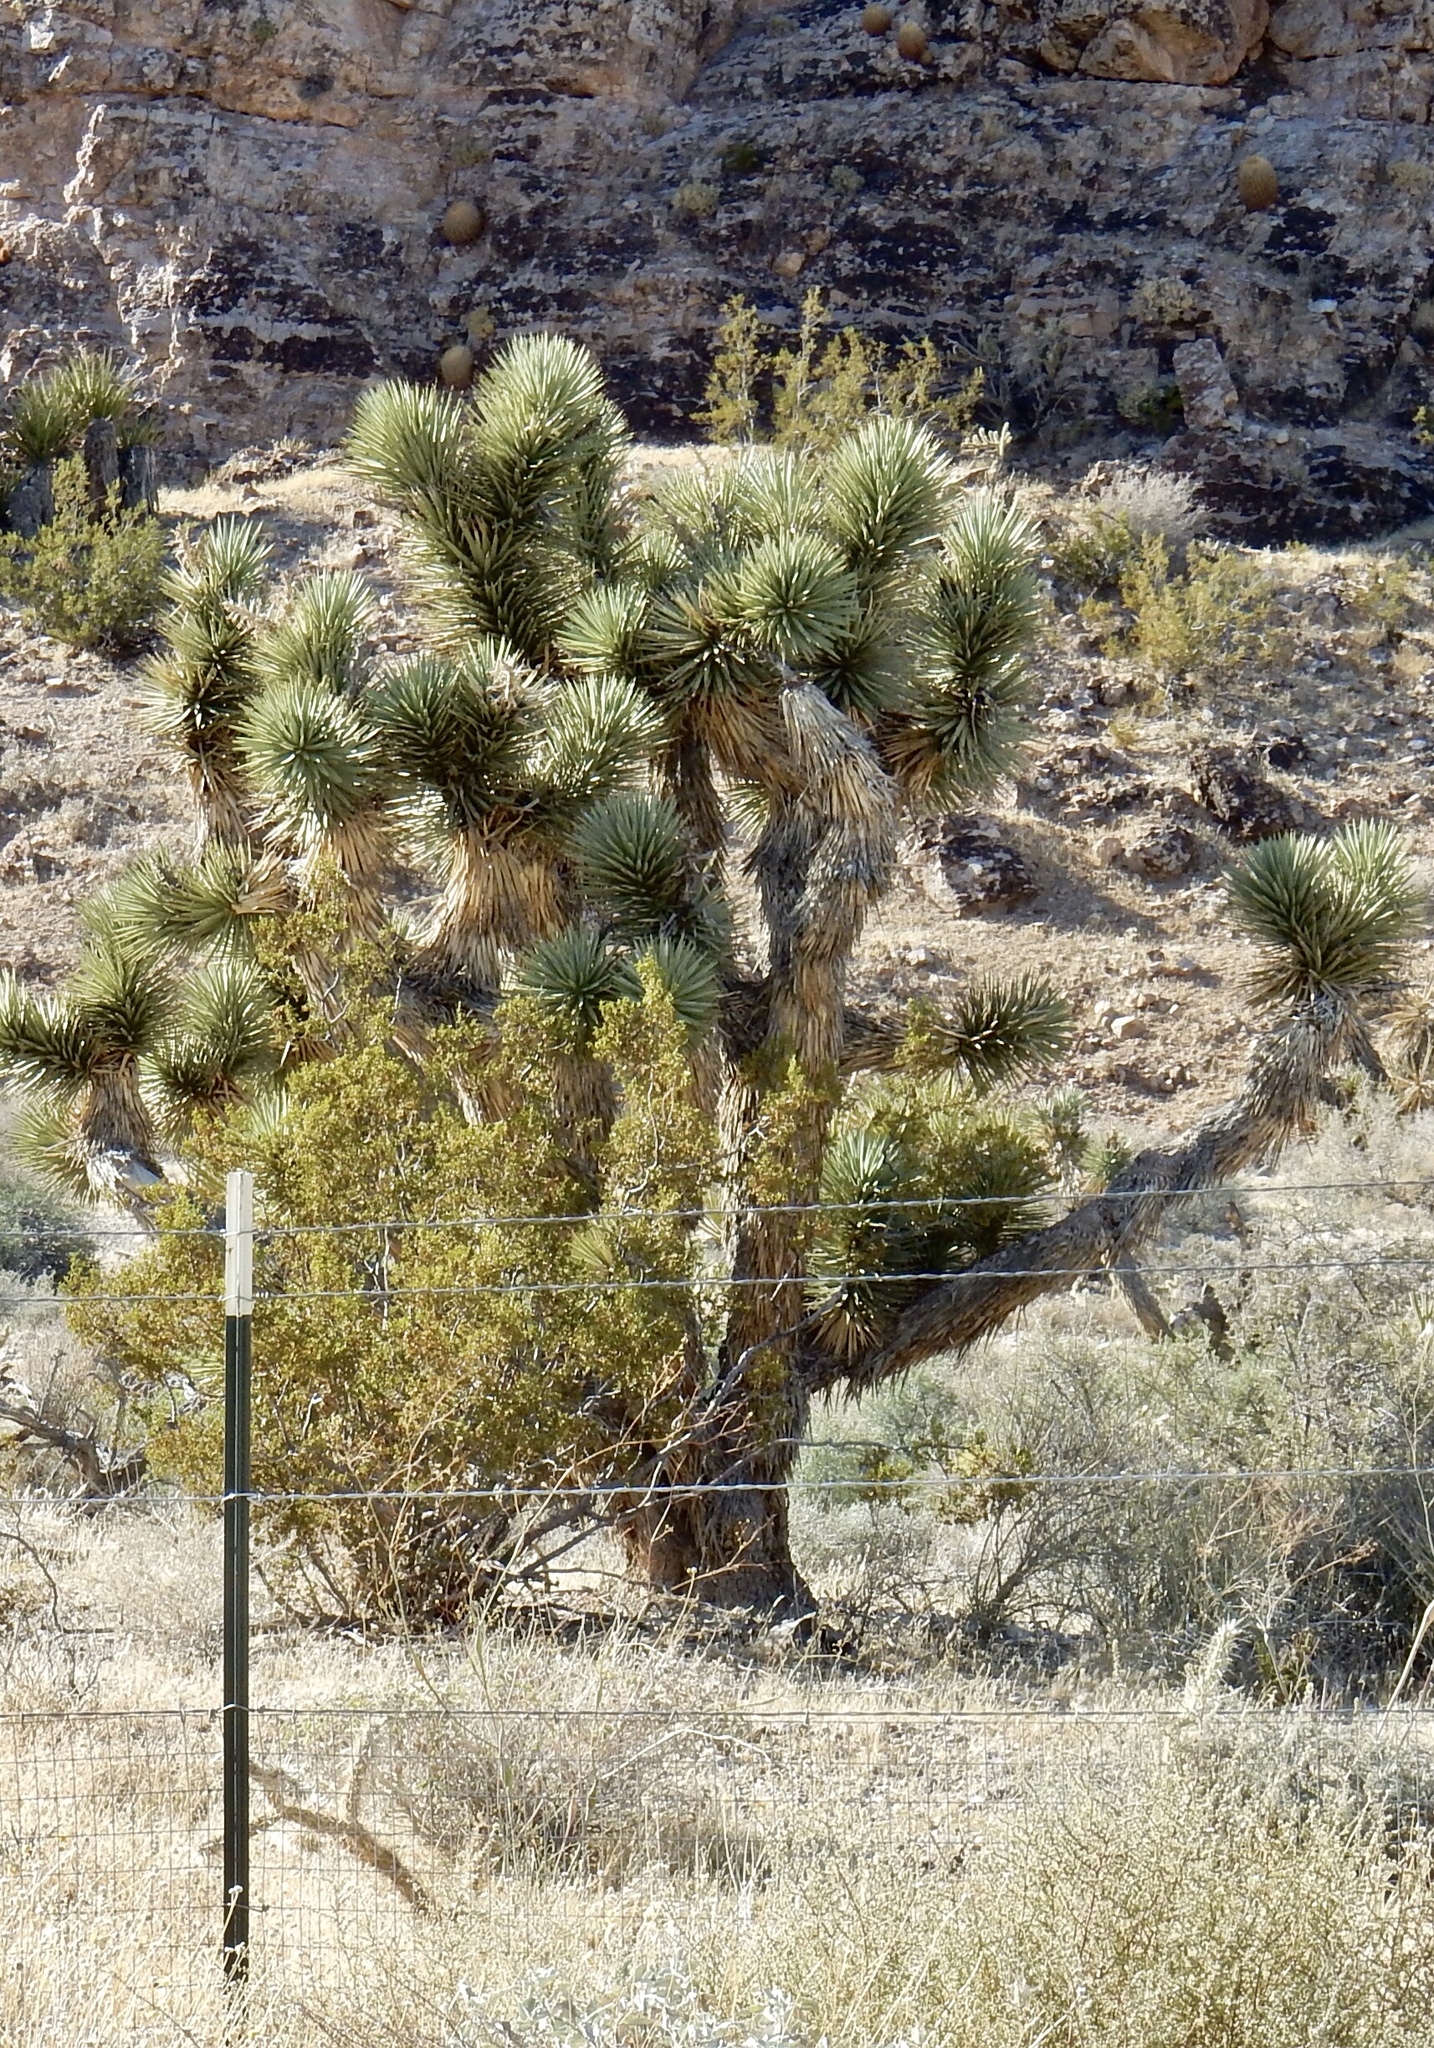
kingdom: Plantae
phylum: Tracheophyta
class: Liliopsida
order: Asparagales
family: Asparagaceae
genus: Yucca
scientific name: Yucca brevifolia
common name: Joshua tree
